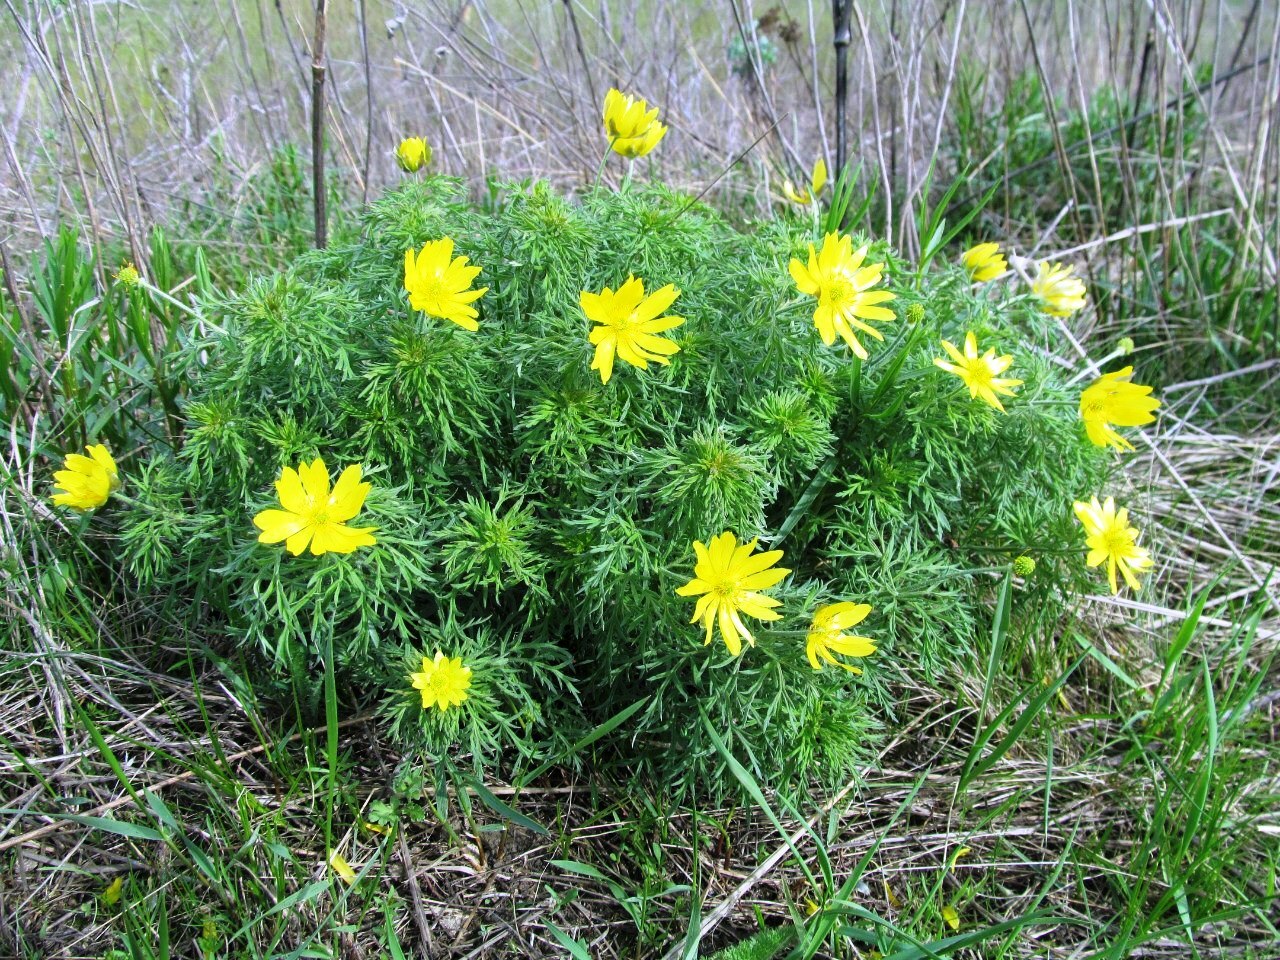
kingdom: Plantae
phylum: Tracheophyta
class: Magnoliopsida
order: Ranunculales
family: Ranunculaceae
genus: Adonis
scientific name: Adonis volgensis
